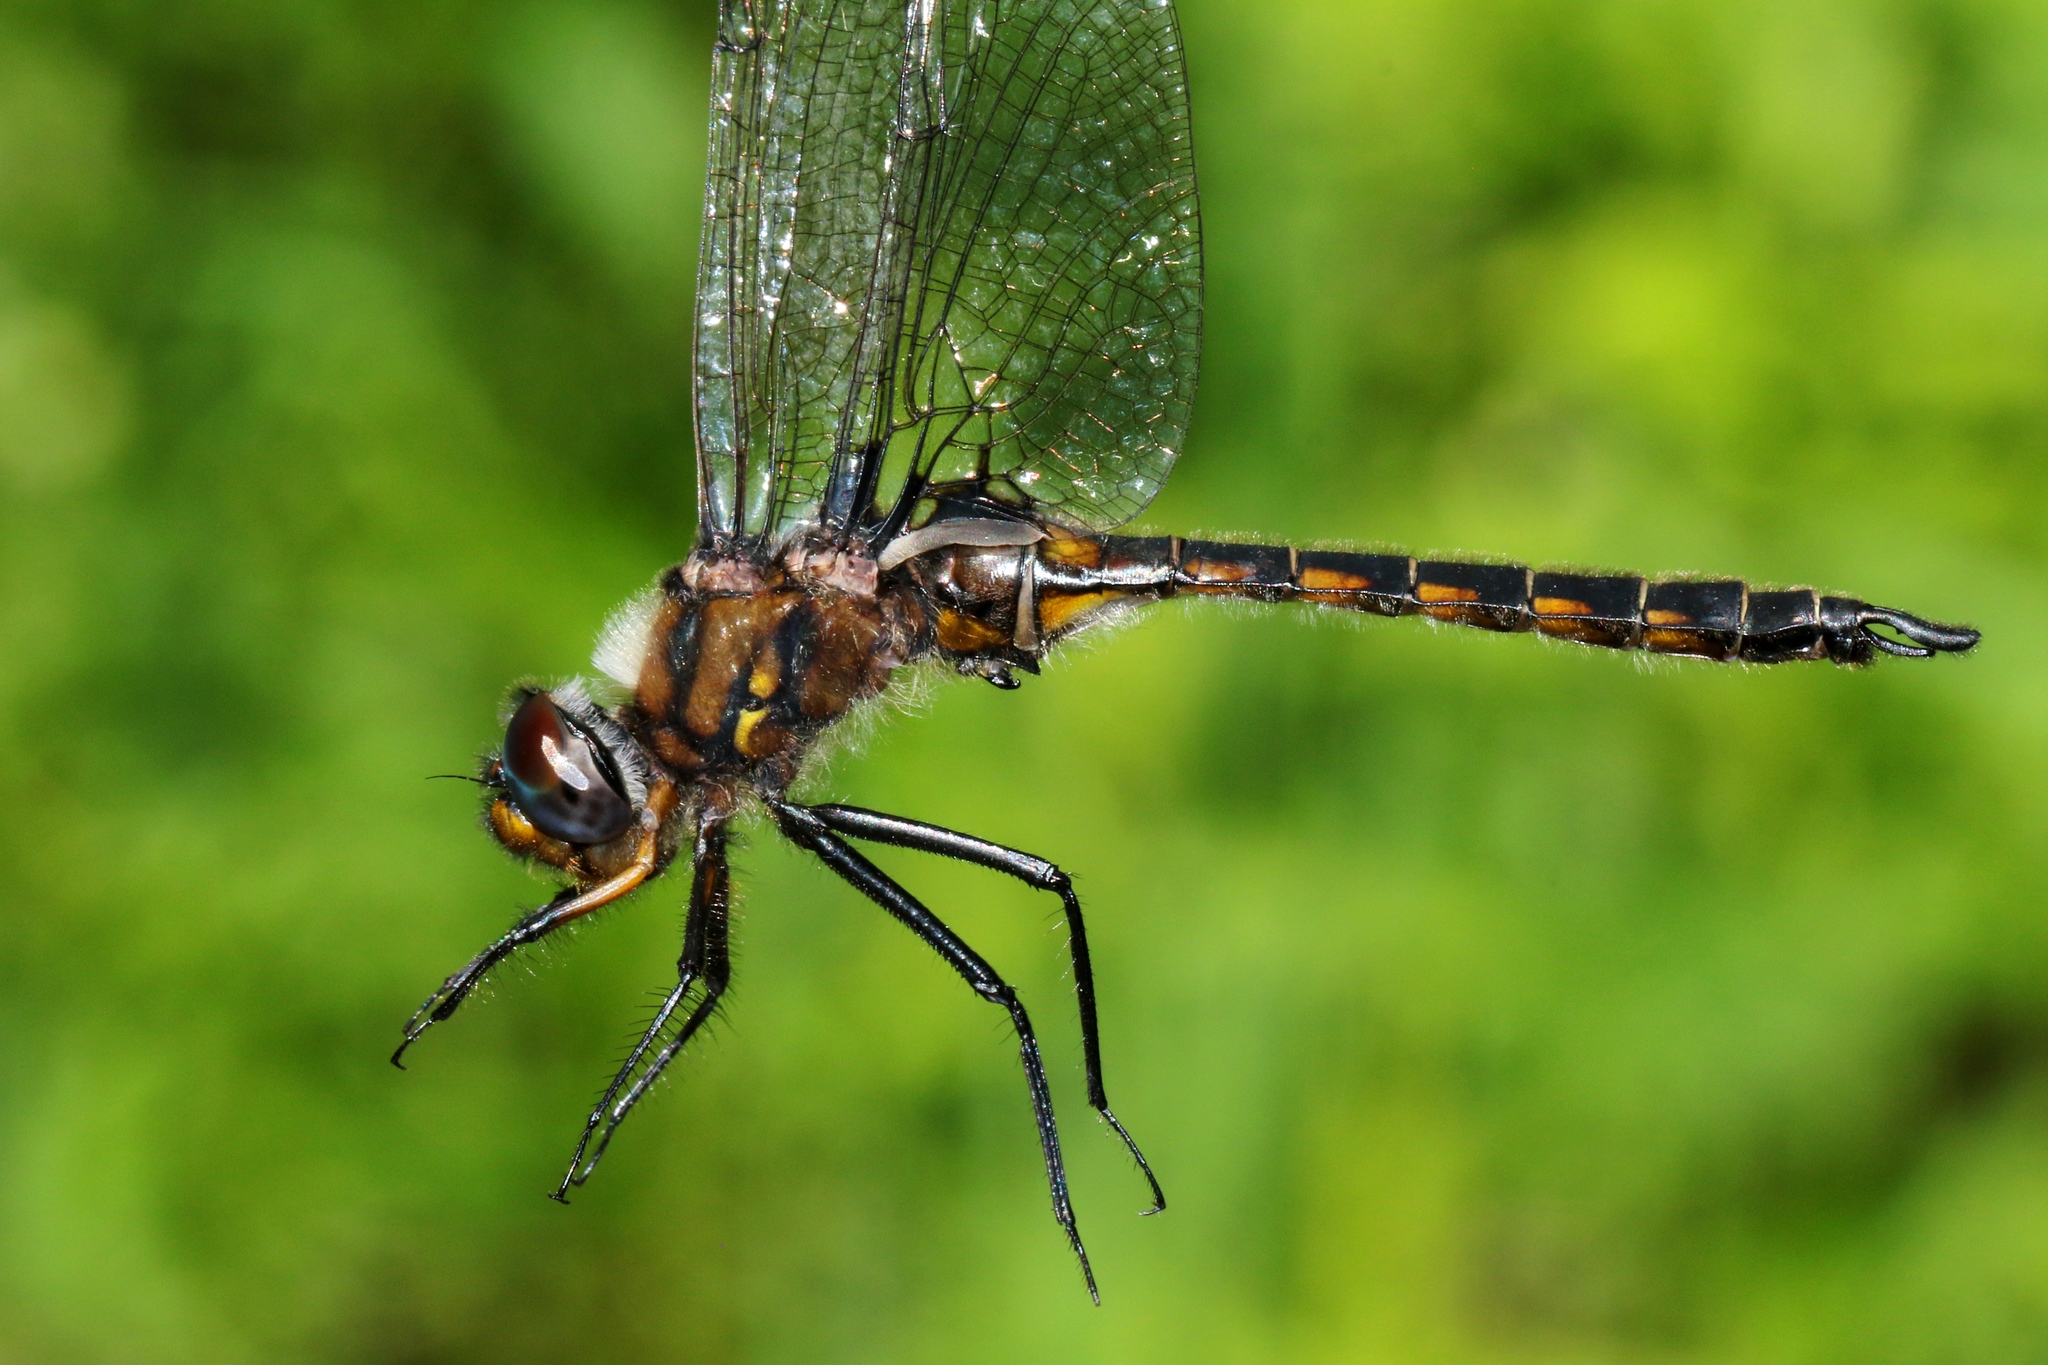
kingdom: Animalia
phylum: Arthropoda
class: Insecta
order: Odonata
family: Corduliidae
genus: Epitheca
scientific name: Epitheca spinigera
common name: Spiny baskettail
